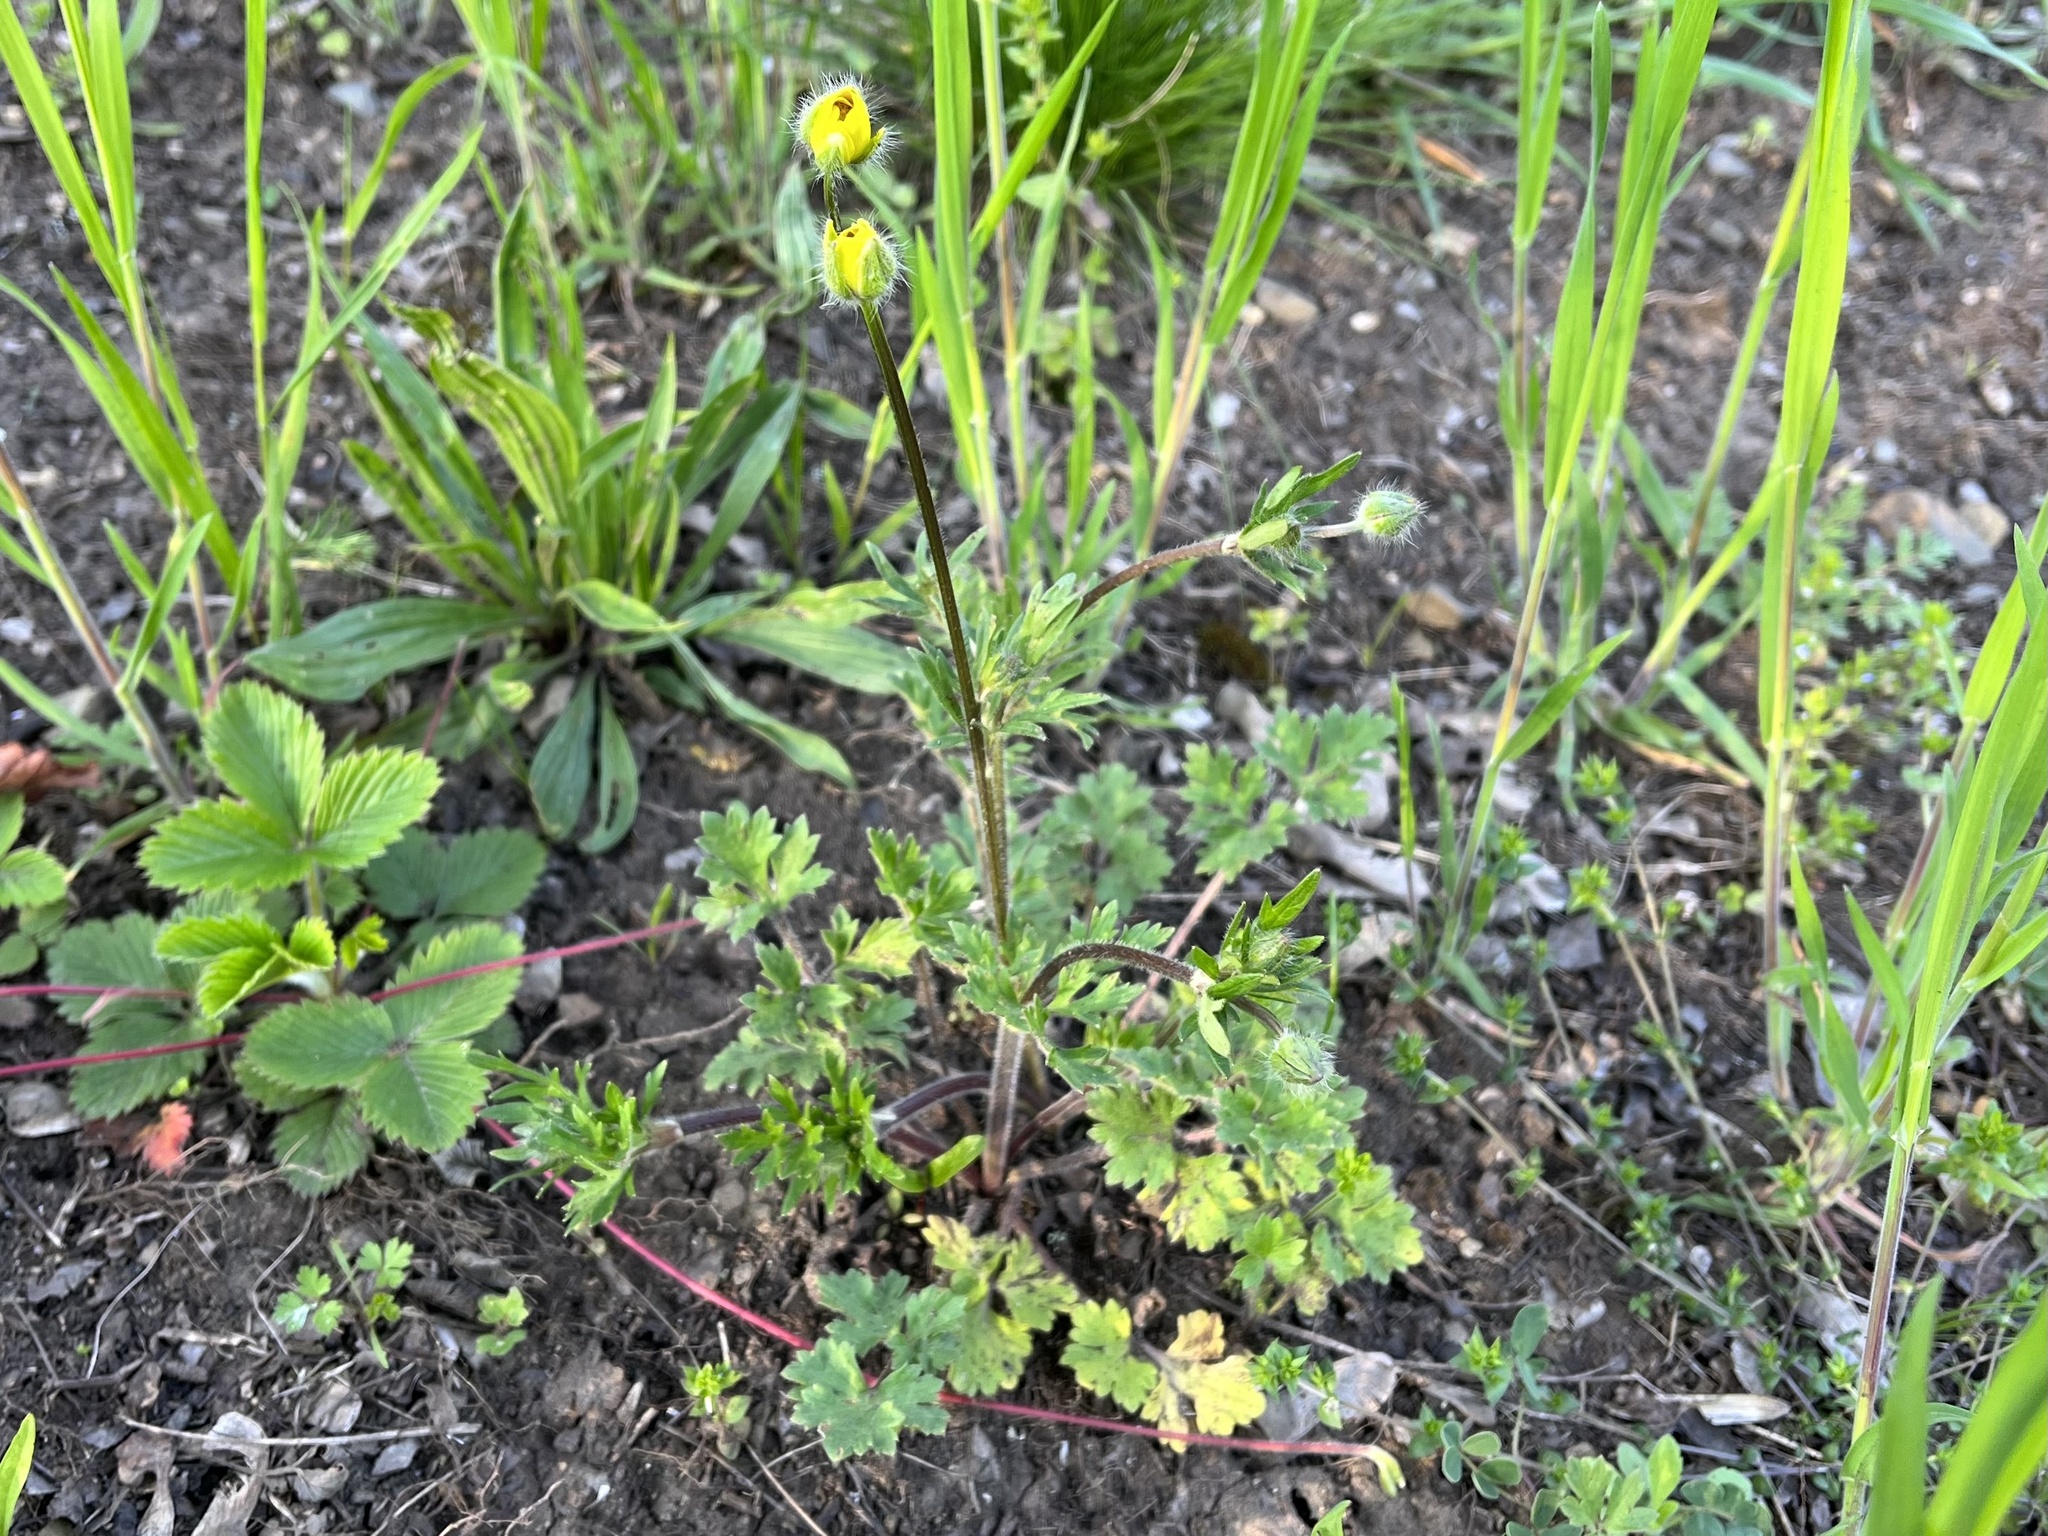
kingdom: Plantae
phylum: Tracheophyta
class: Magnoliopsida
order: Ranunculales
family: Ranunculaceae
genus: Ranunculus
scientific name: Ranunculus bulbosus
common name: Bulbous buttercup
